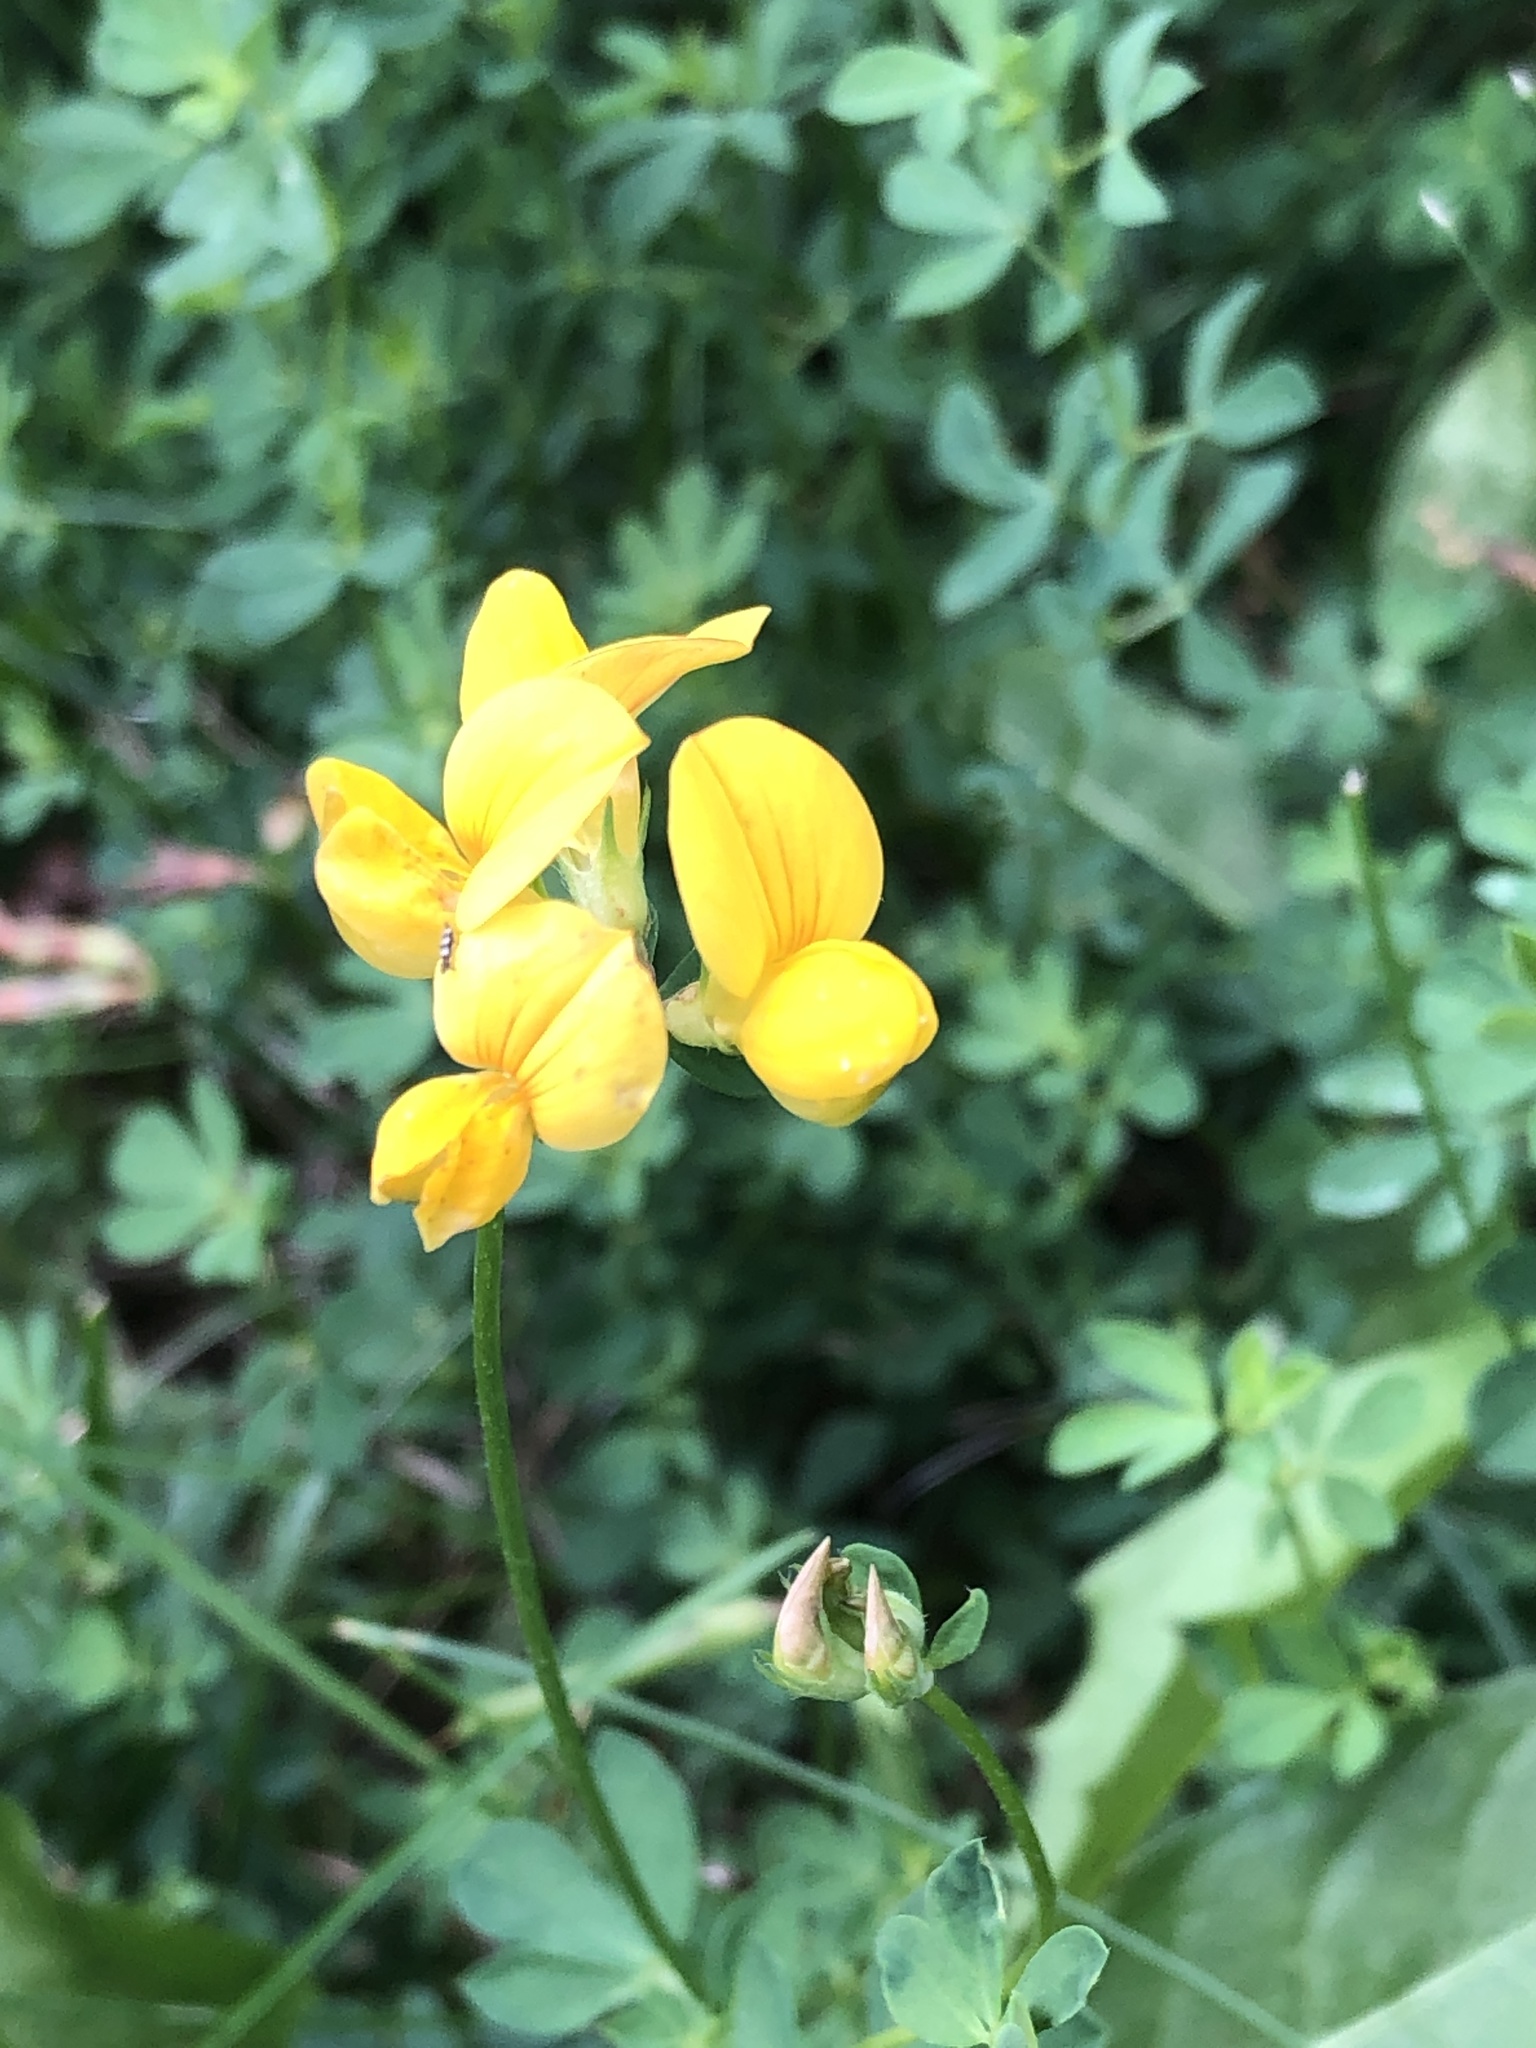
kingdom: Plantae
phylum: Tracheophyta
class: Magnoliopsida
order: Fabales
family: Fabaceae
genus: Lotus
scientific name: Lotus corniculatus
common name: Common bird's-foot-trefoil
